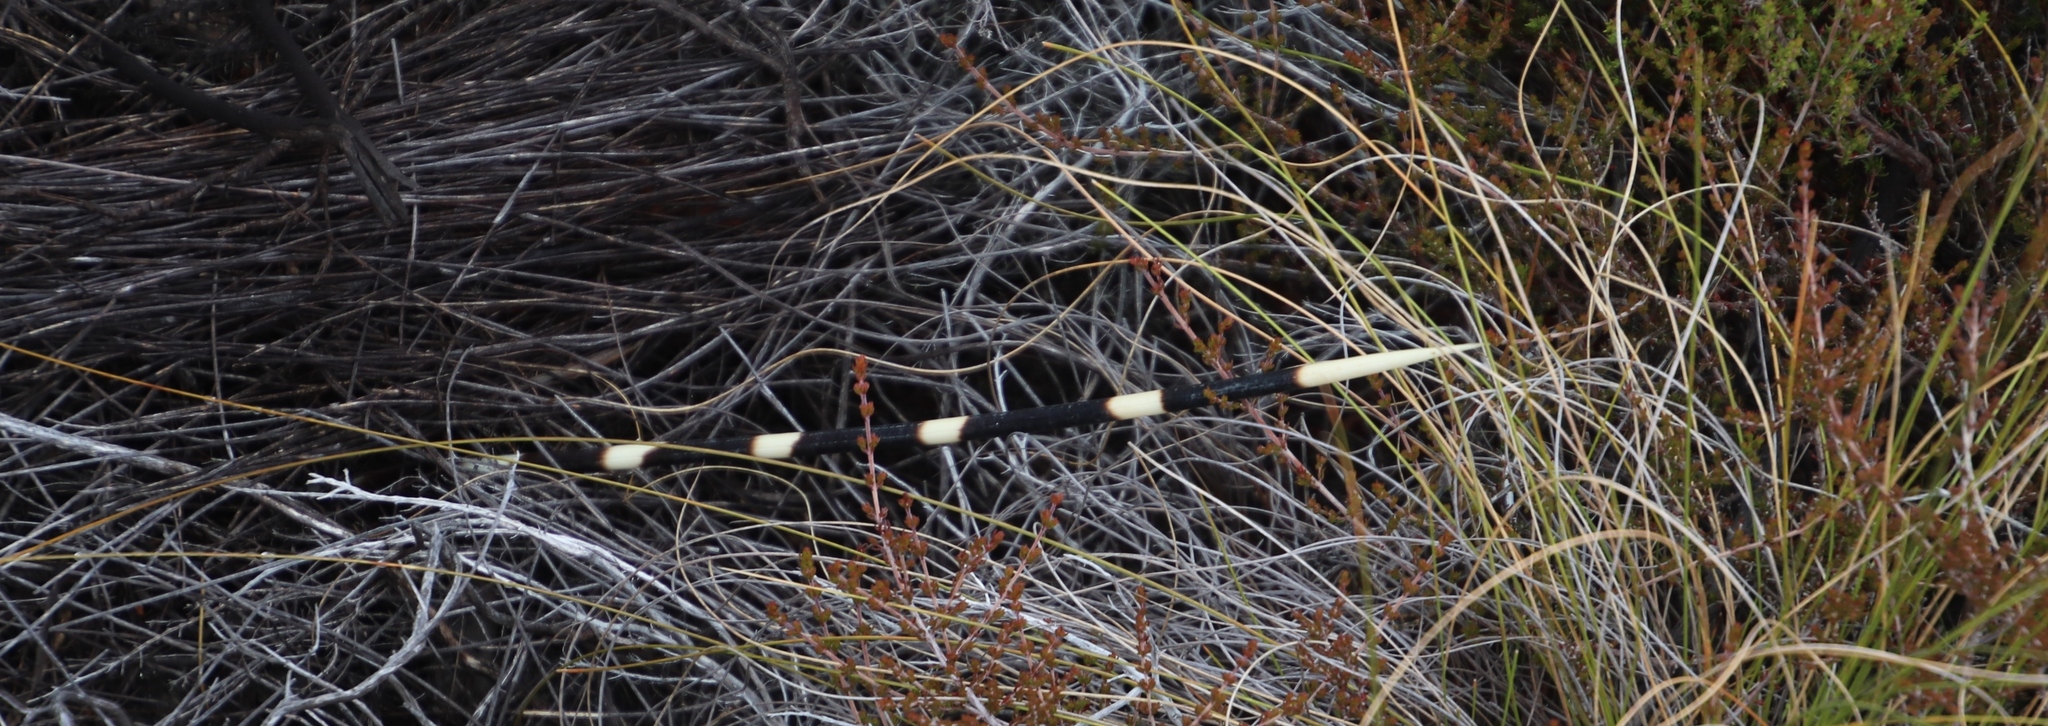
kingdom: Animalia
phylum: Chordata
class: Mammalia
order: Rodentia
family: Hystricidae
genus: Hystrix
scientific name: Hystrix africaeaustralis
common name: Cape porcupine
